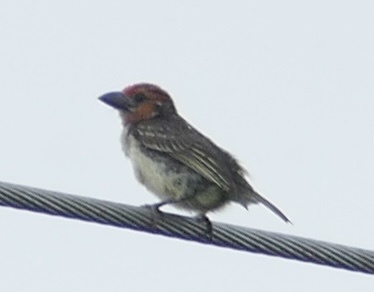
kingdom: Animalia
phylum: Chordata
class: Aves
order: Piciformes
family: Lybiidae
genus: Lybius
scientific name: Lybius vieilloti
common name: Vieillot's barbet
